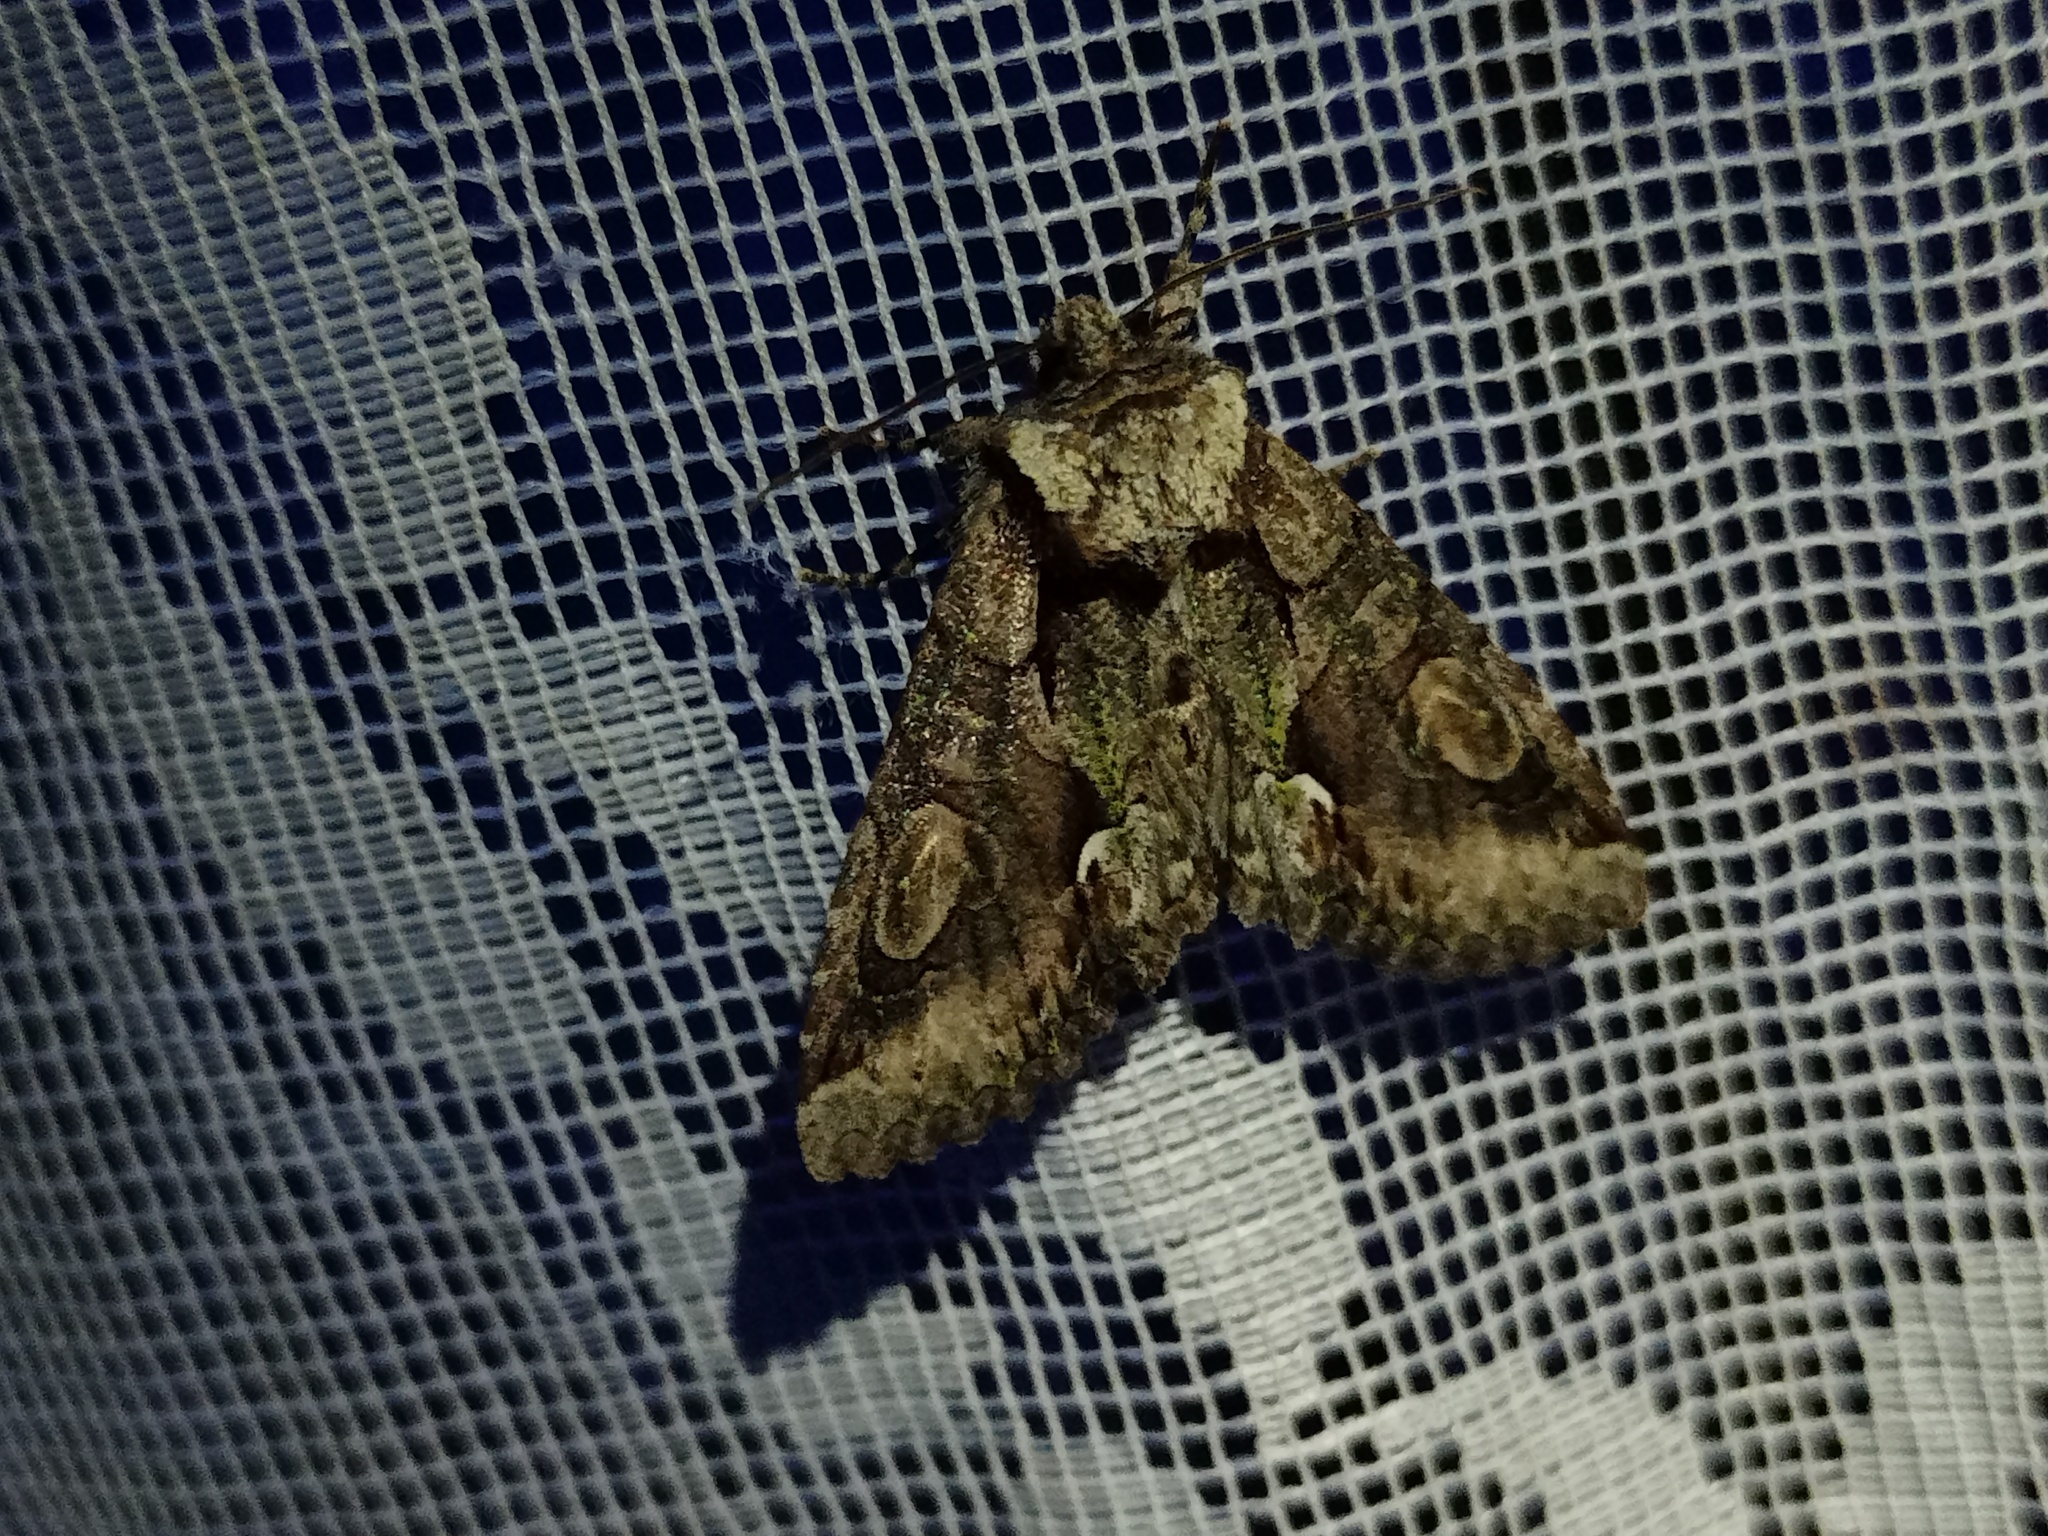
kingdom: Animalia
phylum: Arthropoda
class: Insecta
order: Lepidoptera
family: Noctuidae
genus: Allophyes
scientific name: Allophyes oxyacanthae
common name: Green-brindled crescent
